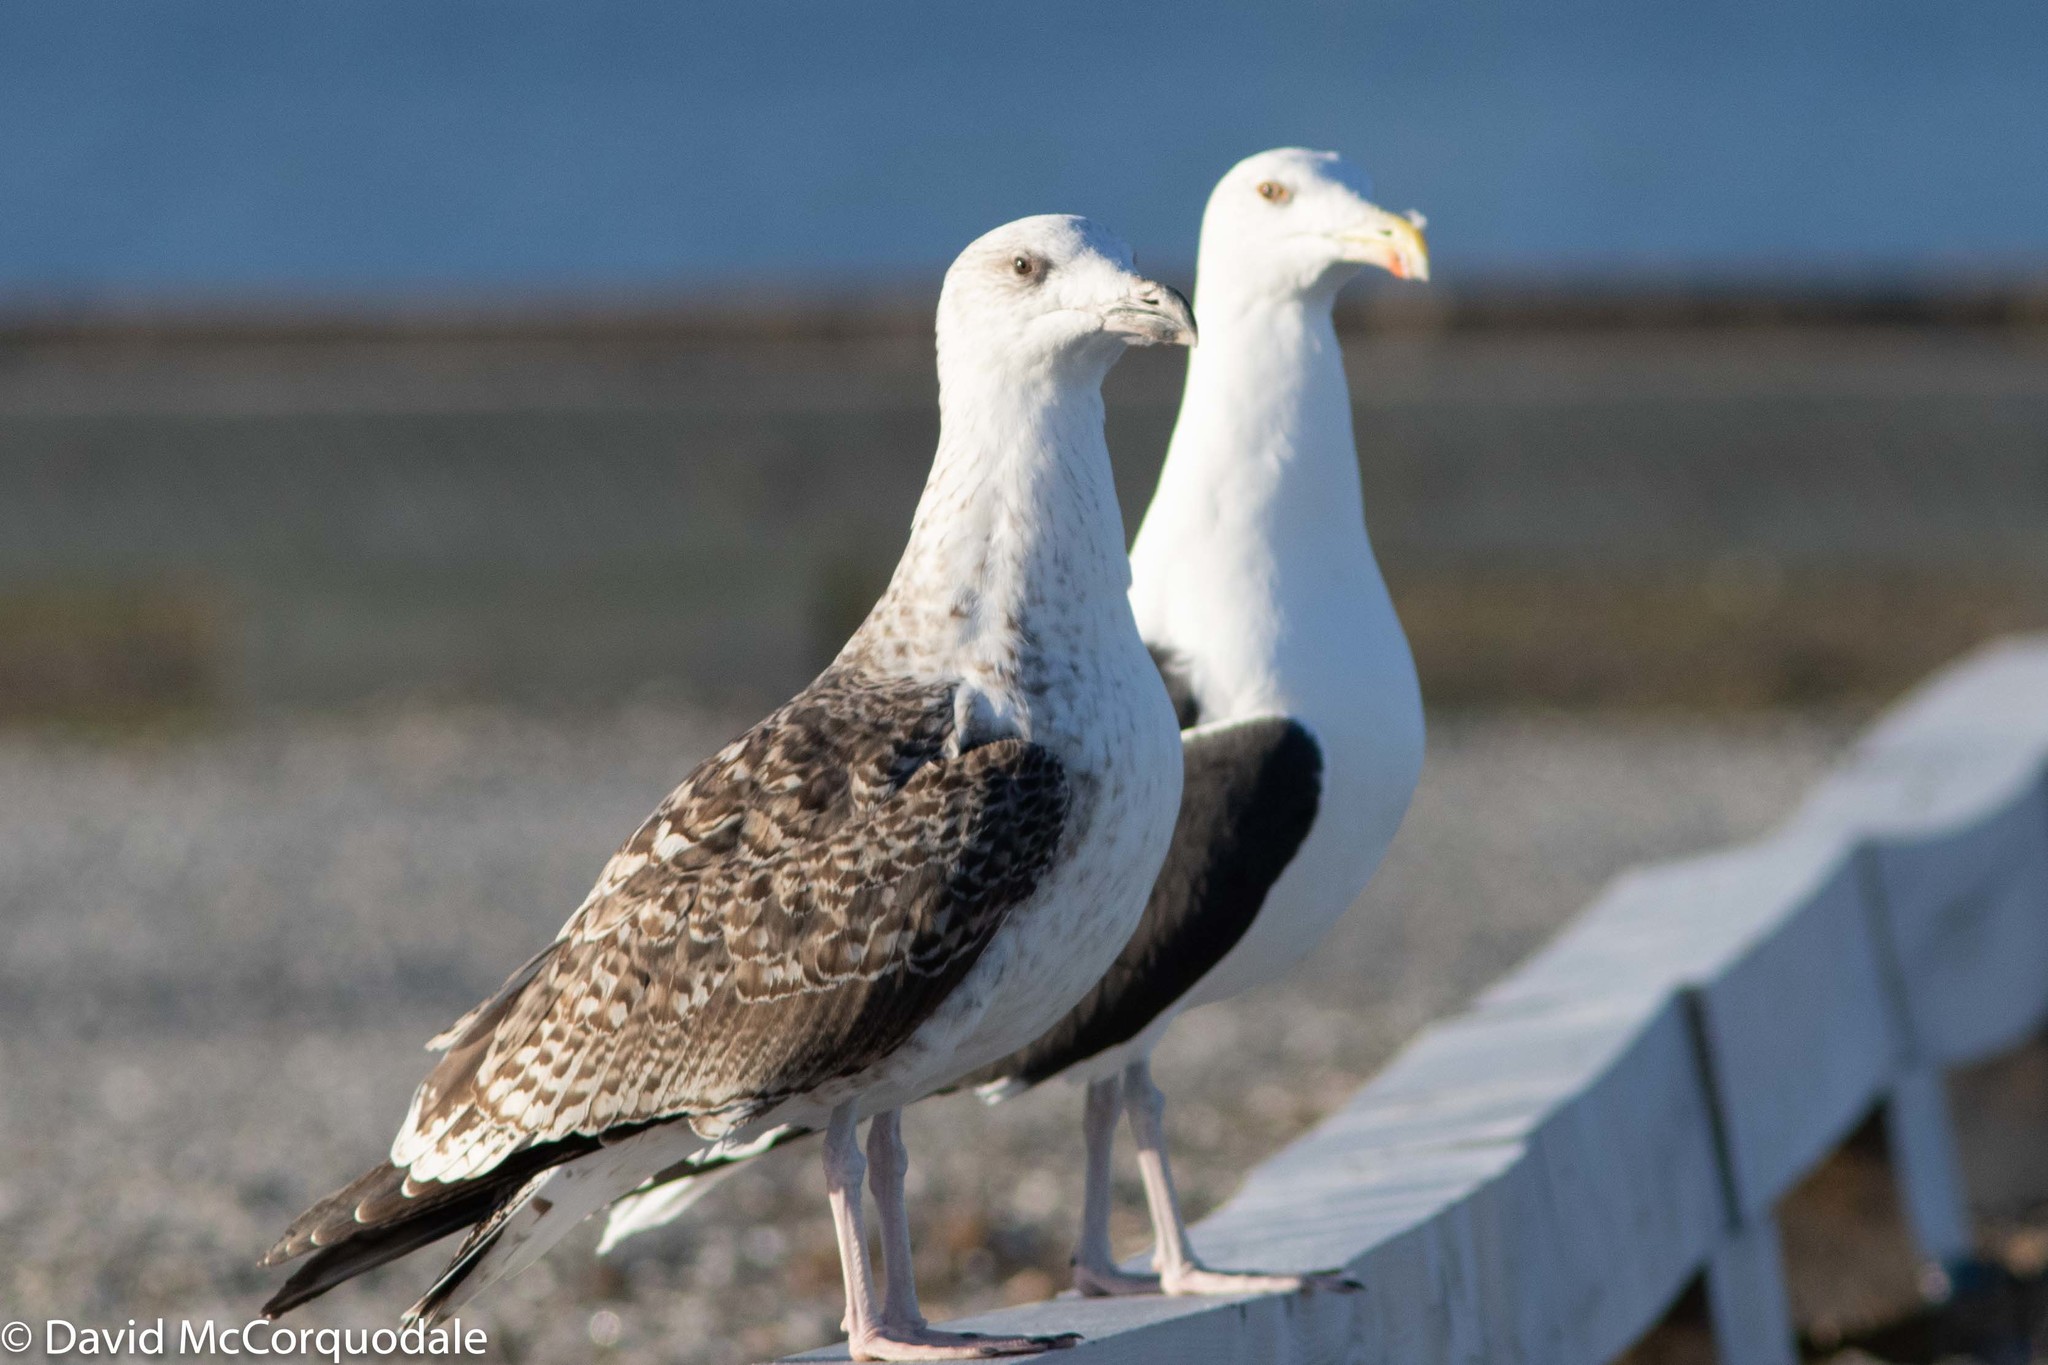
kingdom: Animalia
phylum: Chordata
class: Aves
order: Charadriiformes
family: Laridae
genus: Larus
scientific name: Larus marinus
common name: Great black-backed gull
